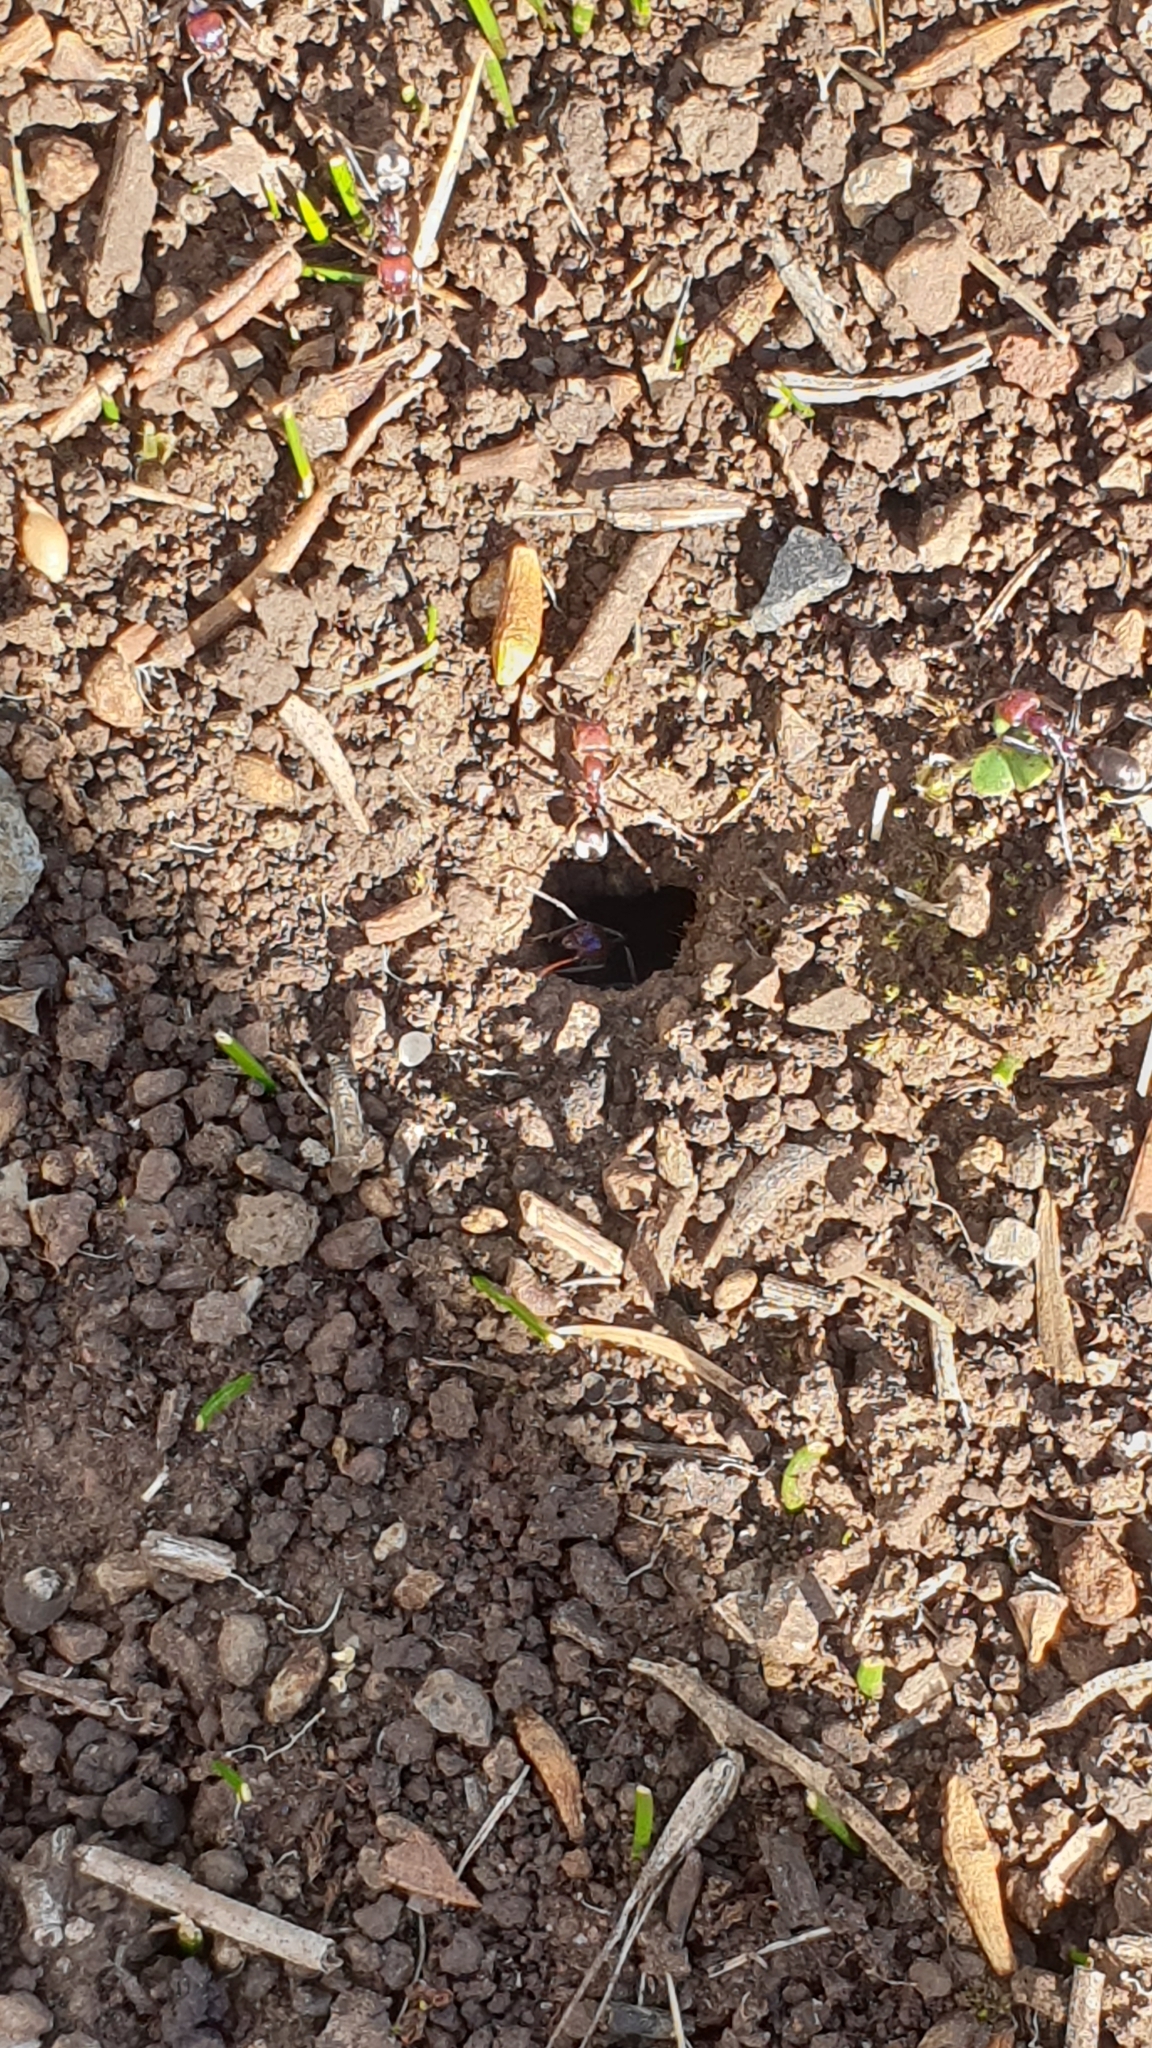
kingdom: Animalia
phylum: Arthropoda
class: Insecta
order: Hymenoptera
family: Formicidae
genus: Iridomyrmex
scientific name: Iridomyrmex purpureus
